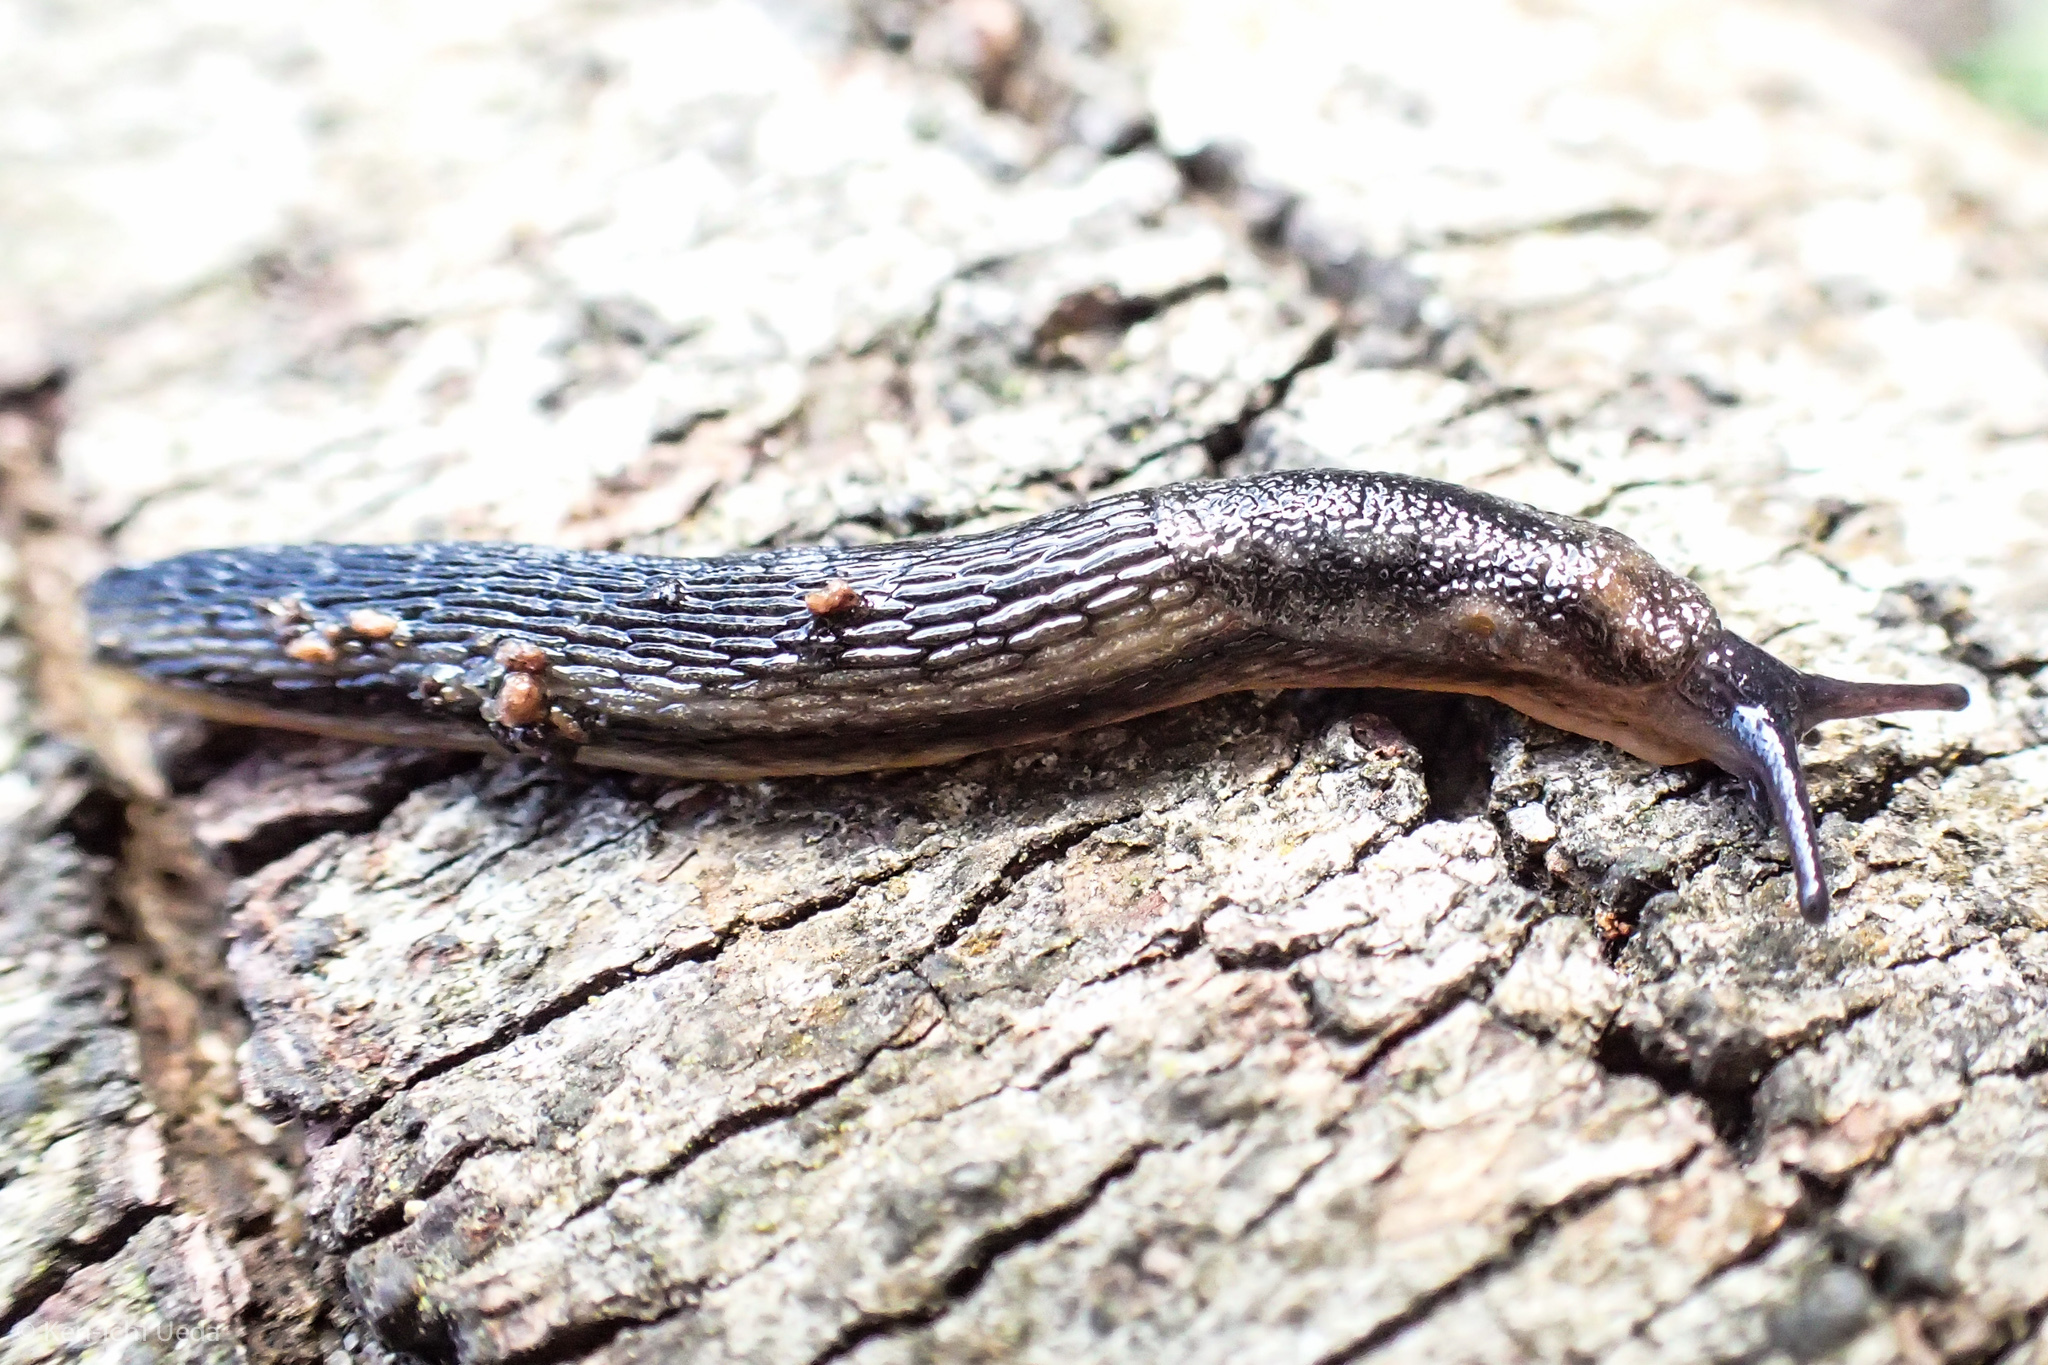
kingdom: Animalia
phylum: Mollusca
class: Gastropoda
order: Stylommatophora
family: Arionidae
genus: Arion
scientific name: Arion hortensis
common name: Garden arion
